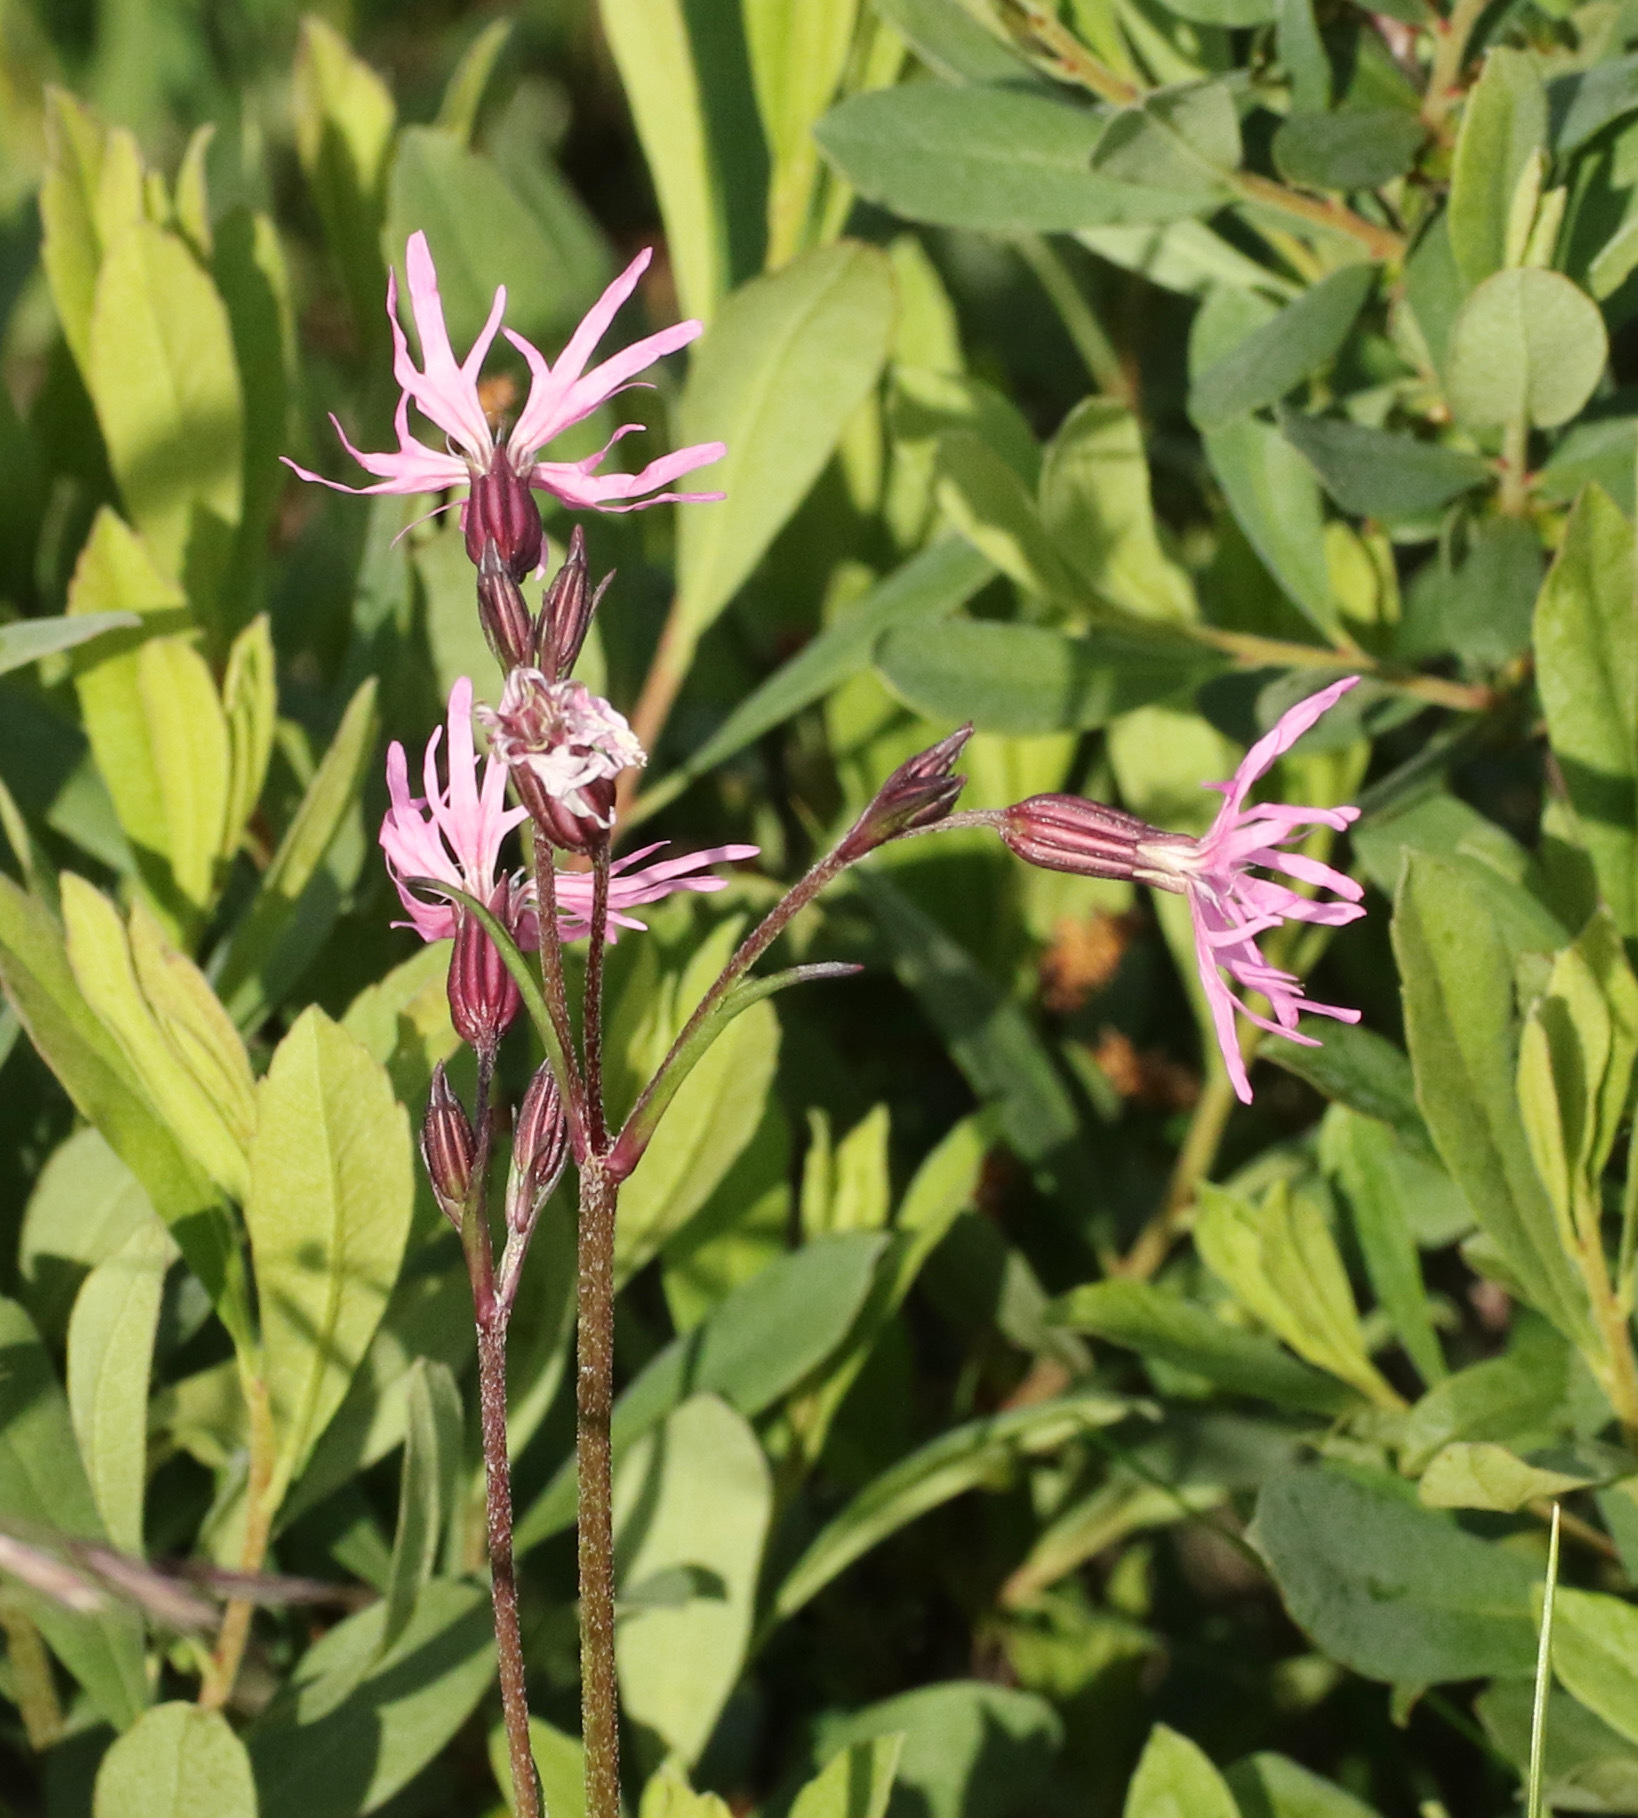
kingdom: Plantae
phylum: Tracheophyta
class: Magnoliopsida
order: Caryophyllales
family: Caryophyllaceae
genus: Silene
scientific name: Silene flos-cuculi
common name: Ragged-robin
